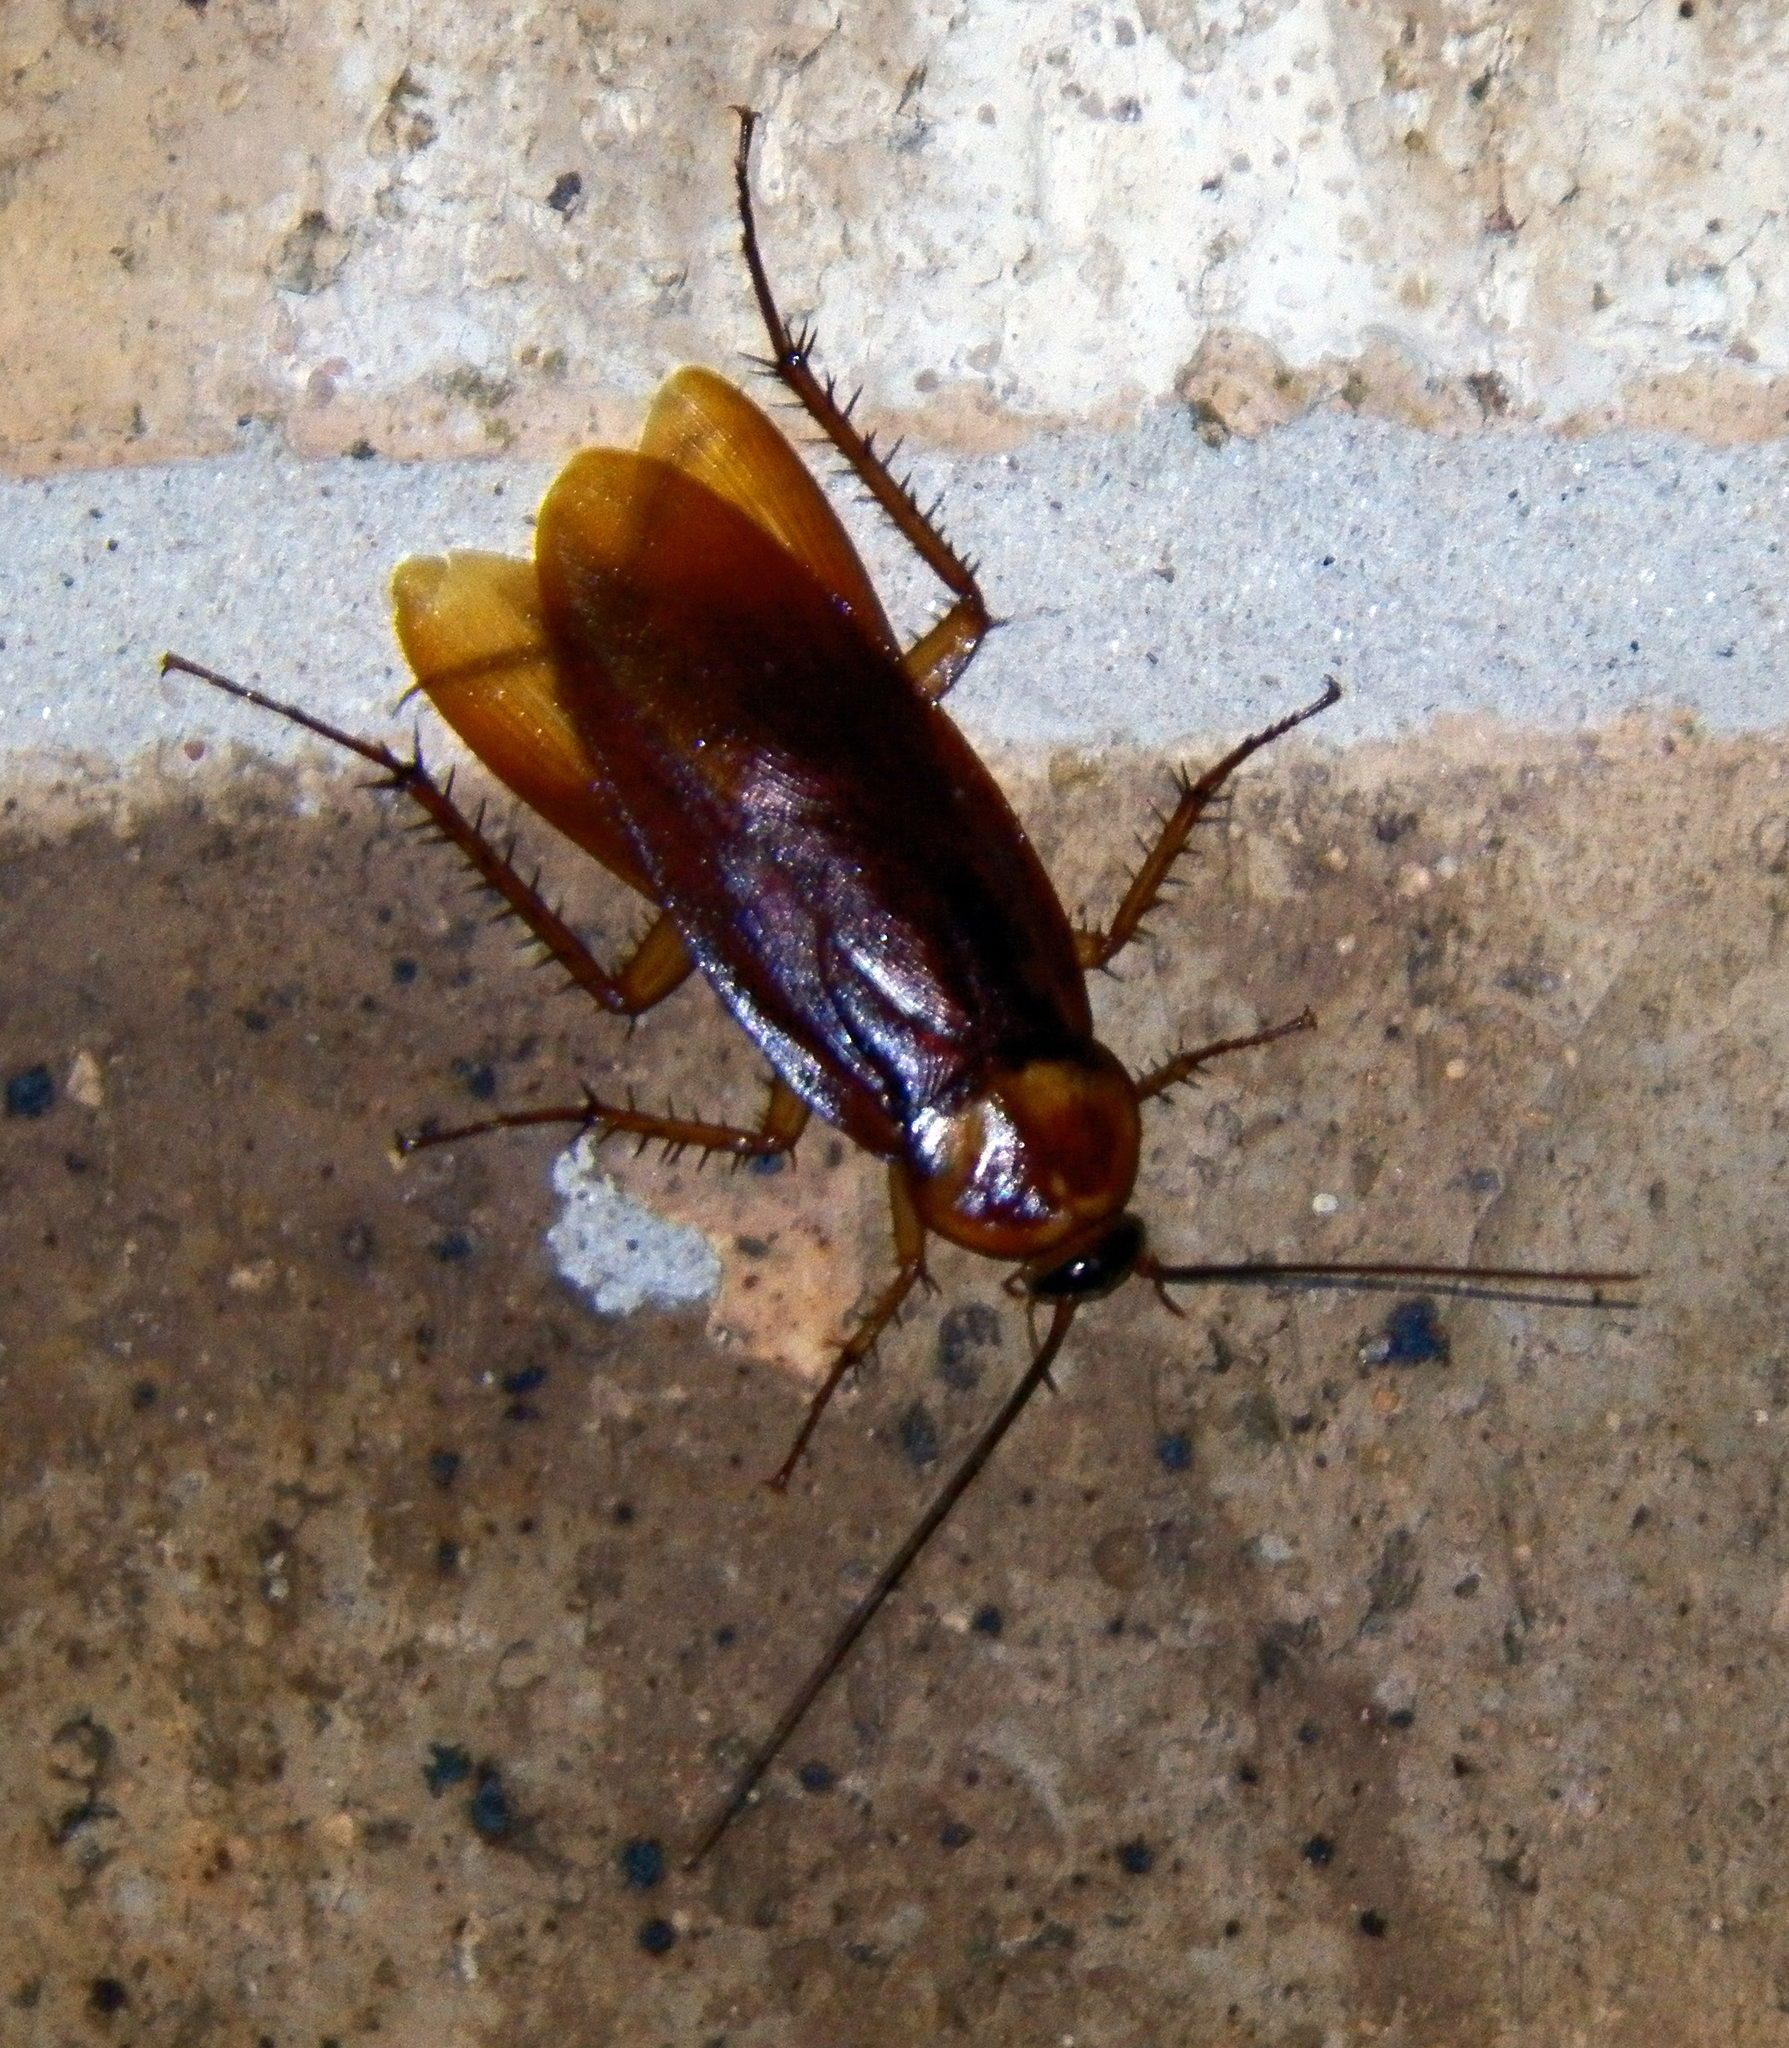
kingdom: Animalia
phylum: Arthropoda
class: Insecta
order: Blattodea
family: Blattidae
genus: Periplaneta
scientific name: Periplaneta americana
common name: American cockroach
